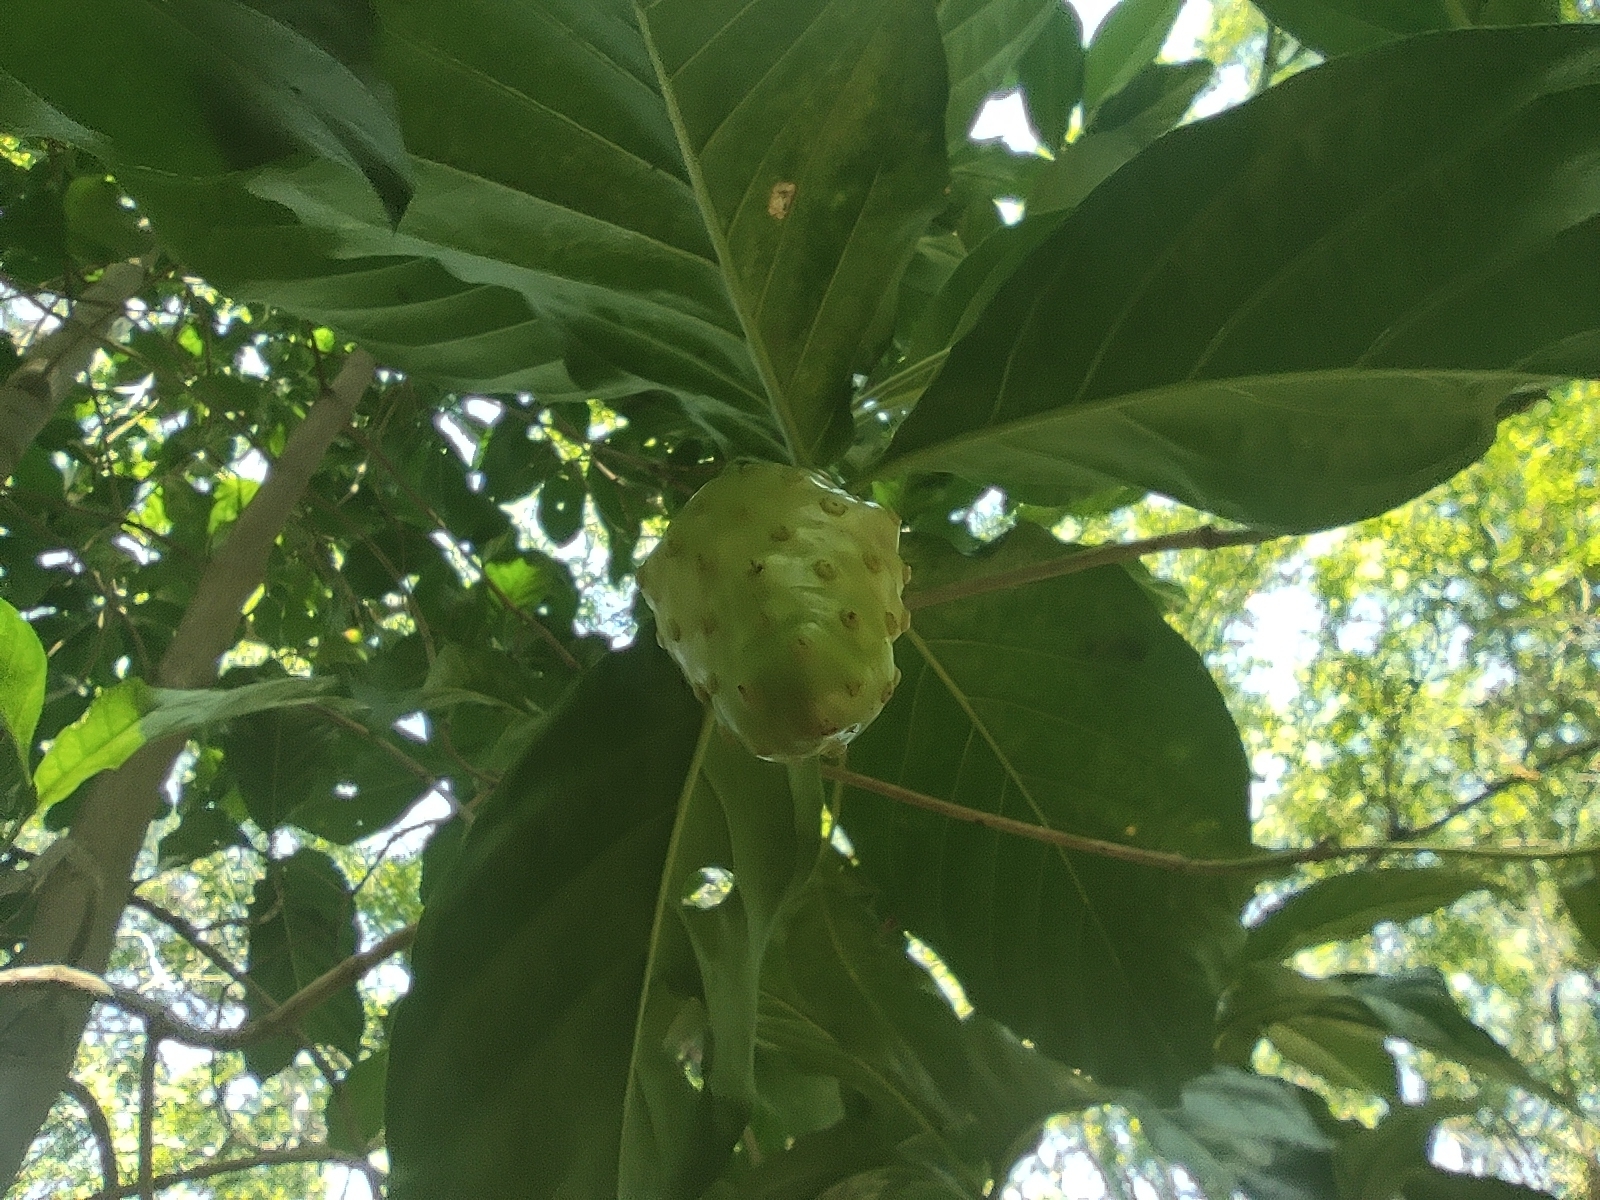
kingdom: Plantae
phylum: Tracheophyta
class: Magnoliopsida
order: Gentianales
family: Rubiaceae
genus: Morinda
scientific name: Morinda citrifolia
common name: Indian-mulberry
